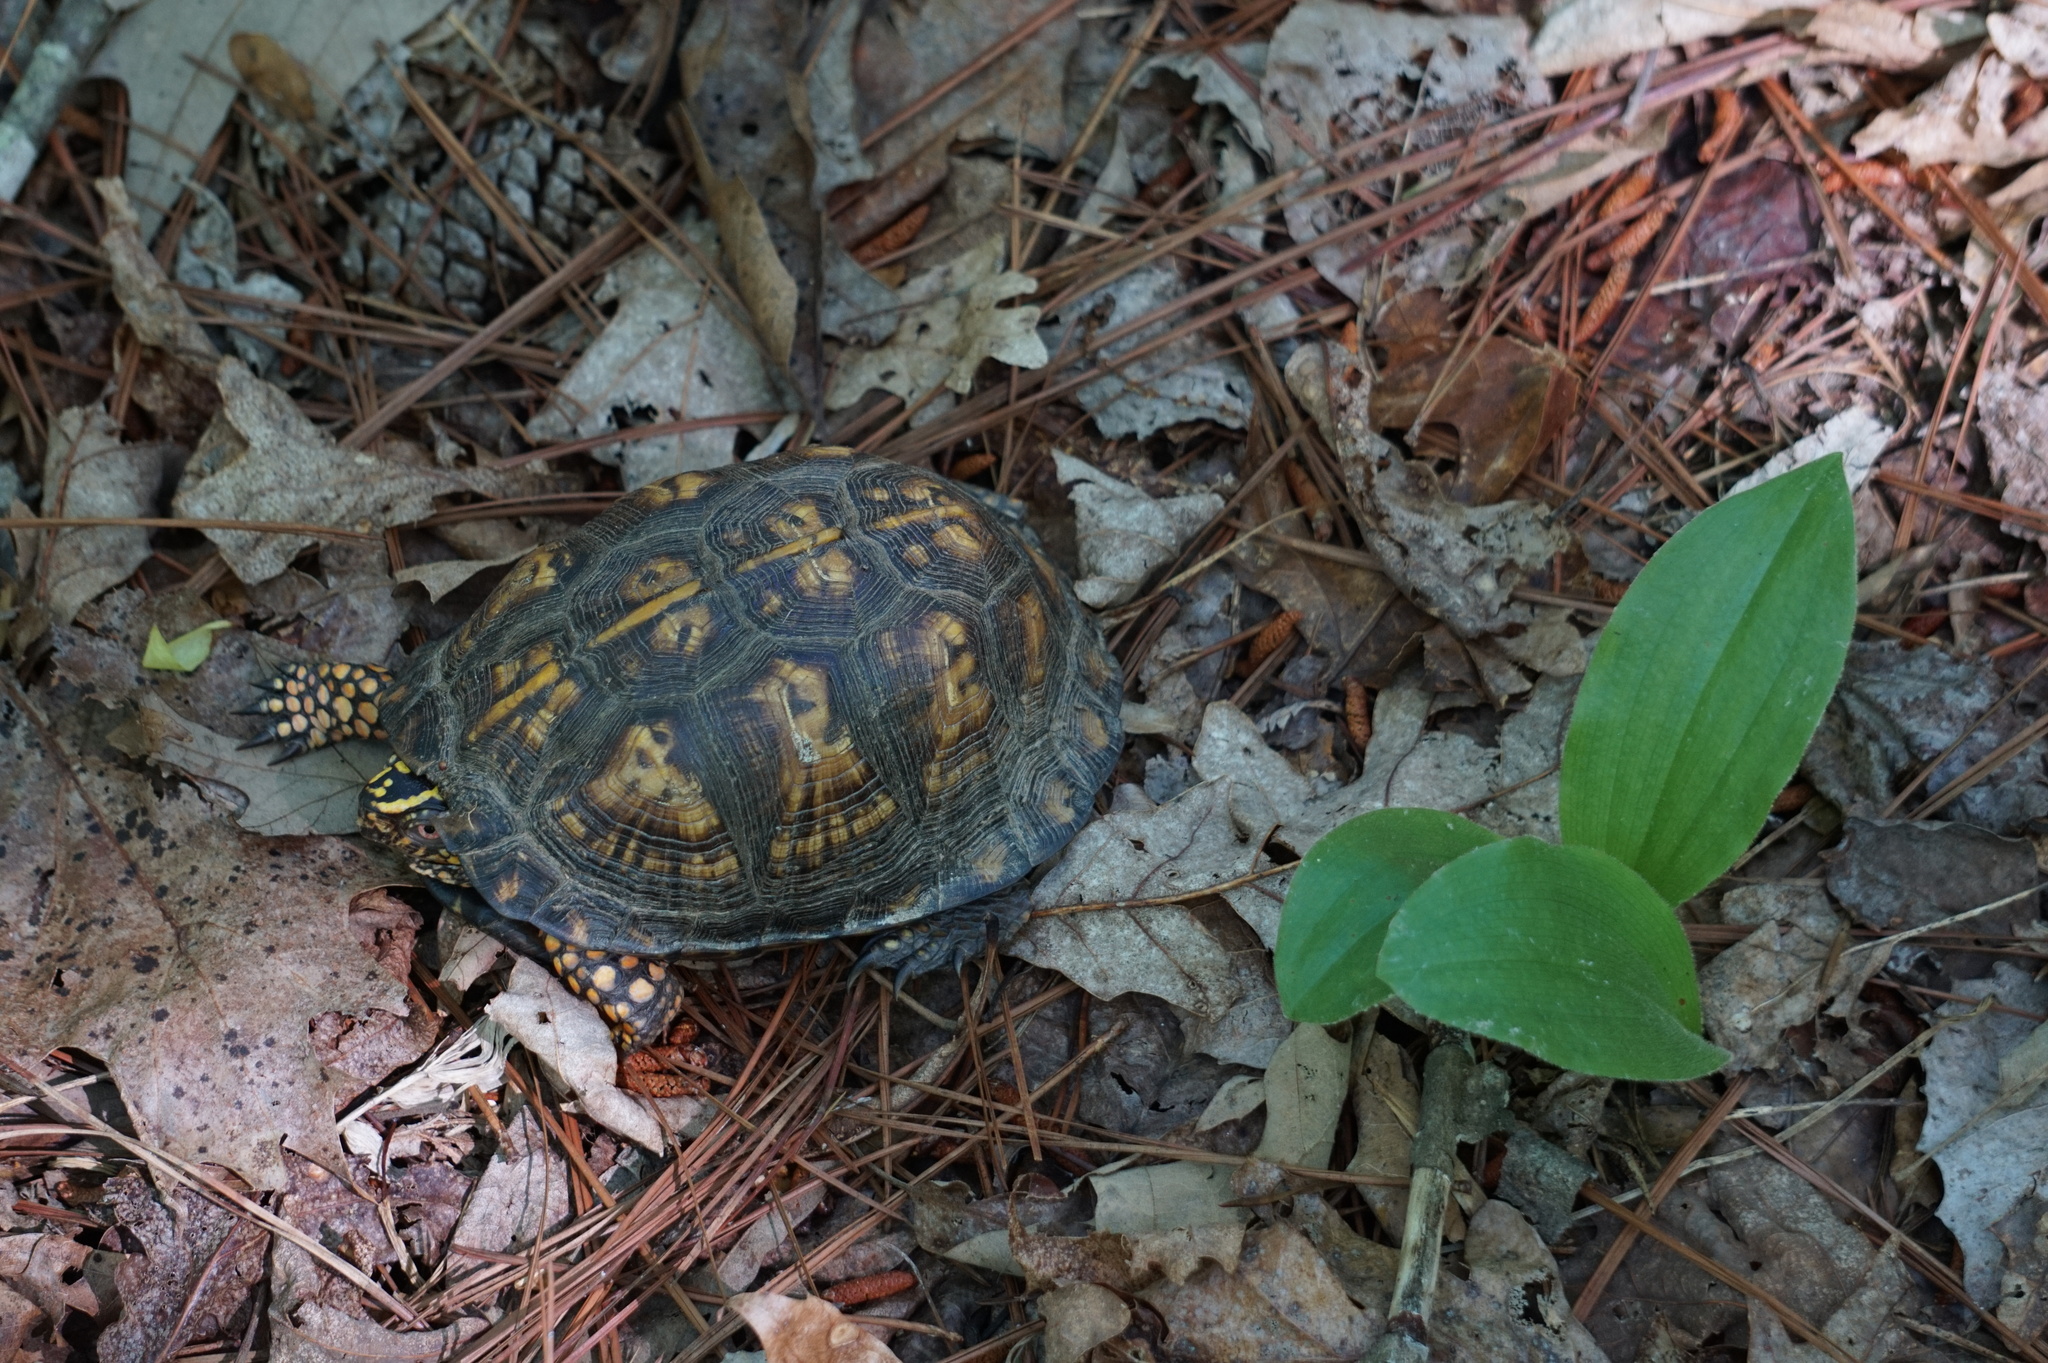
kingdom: Animalia
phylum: Chordata
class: Testudines
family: Emydidae
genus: Terrapene
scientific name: Terrapene carolina
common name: Common box turtle
